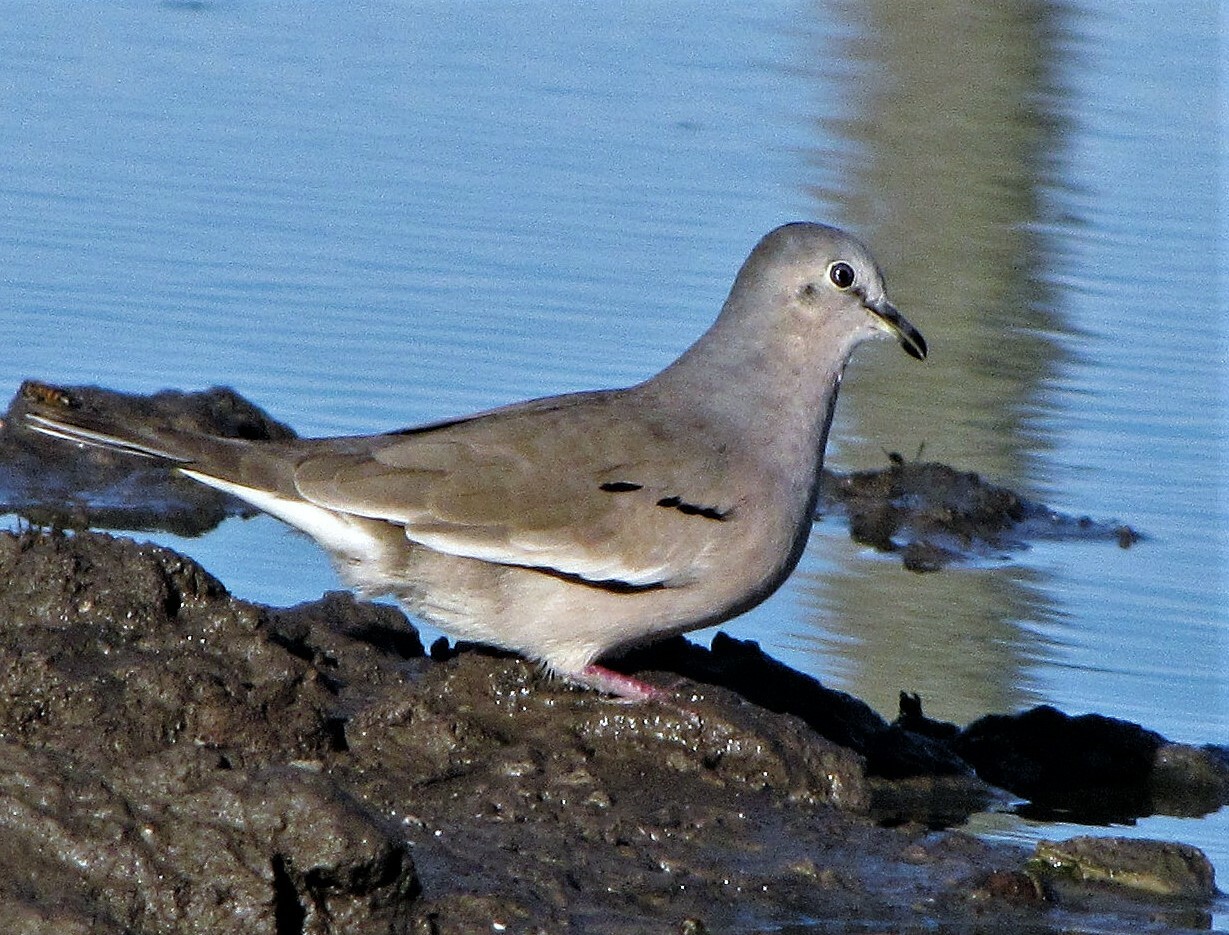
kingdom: Animalia
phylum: Chordata
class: Aves
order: Columbiformes
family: Columbidae
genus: Columbina
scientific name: Columbina picui
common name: Picui ground dove
